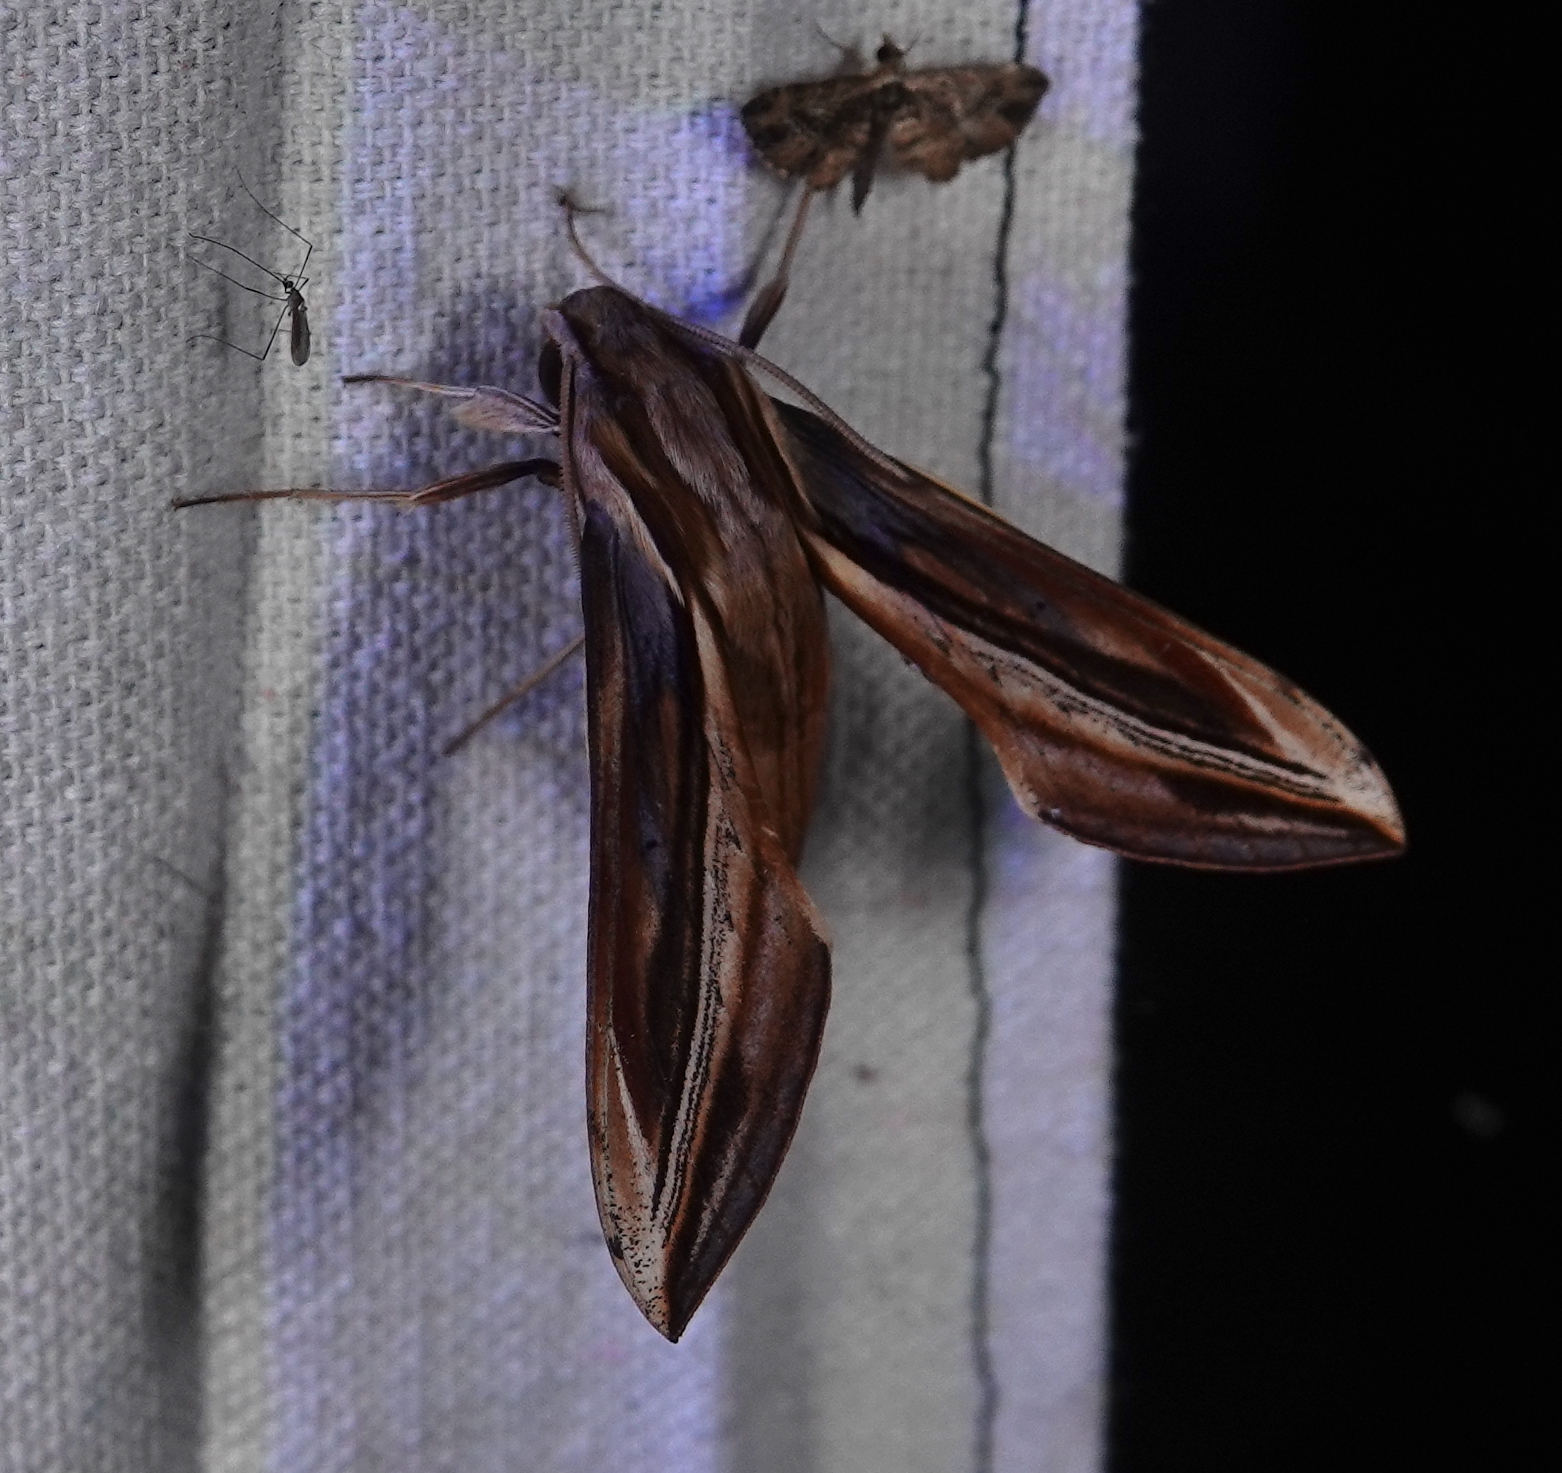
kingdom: Animalia
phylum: Arthropoda
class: Insecta
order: Lepidoptera
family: Sphingidae
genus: Xylophanes
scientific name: Xylophanes pyrrhus
